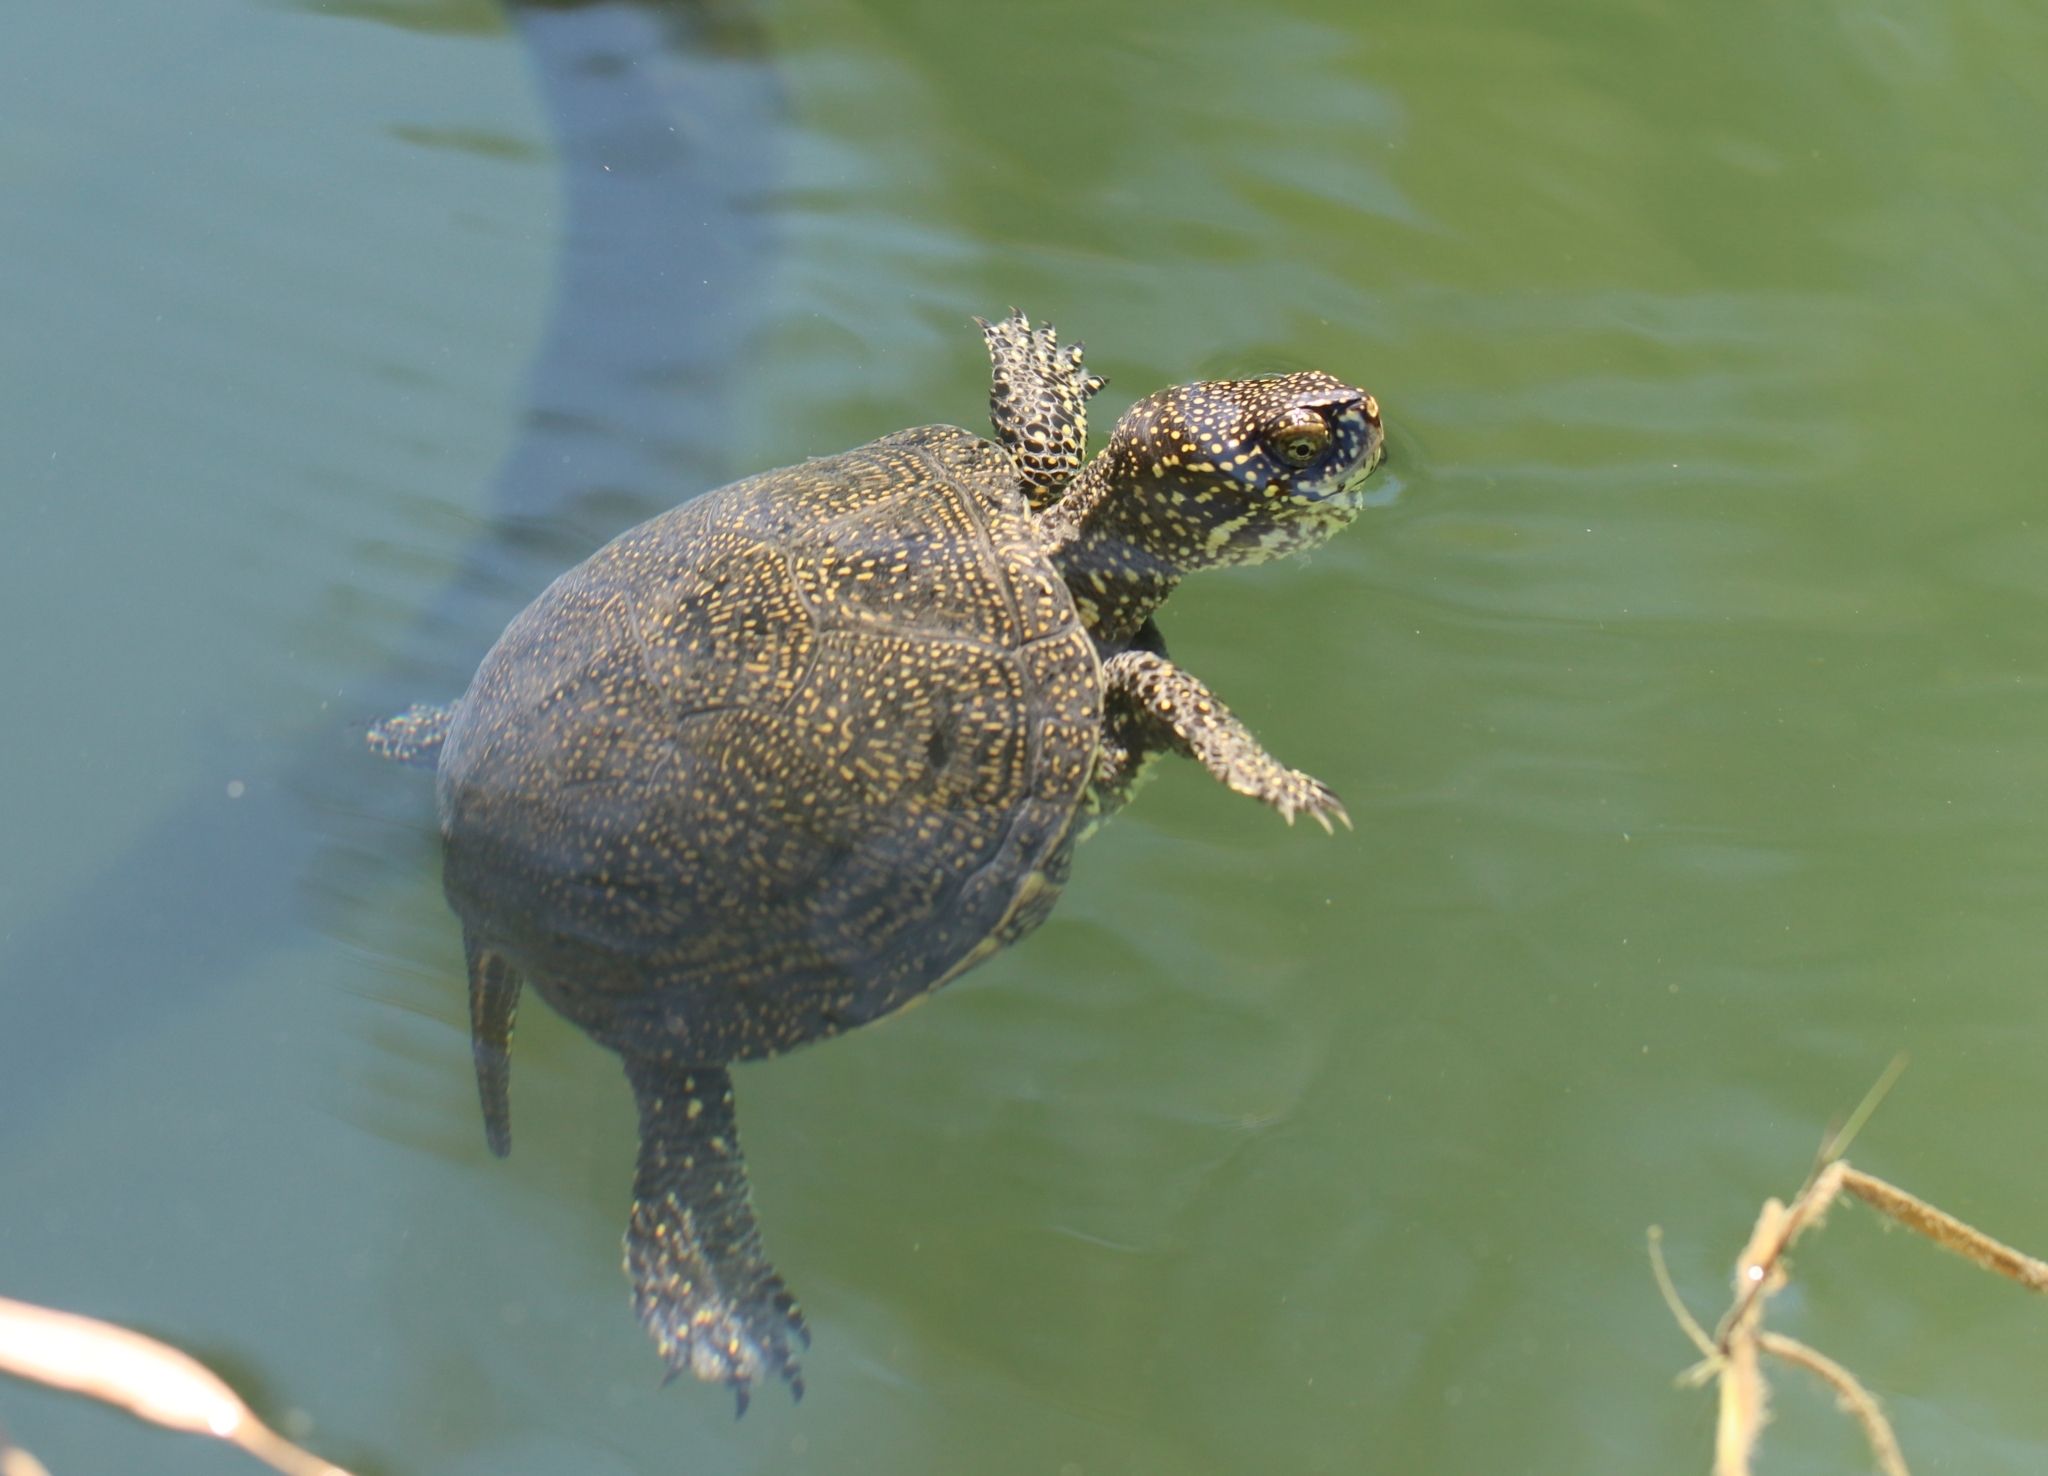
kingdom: Animalia
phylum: Chordata
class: Testudines
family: Emydidae
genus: Emys
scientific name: Emys orbicularis
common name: European pond turtle
